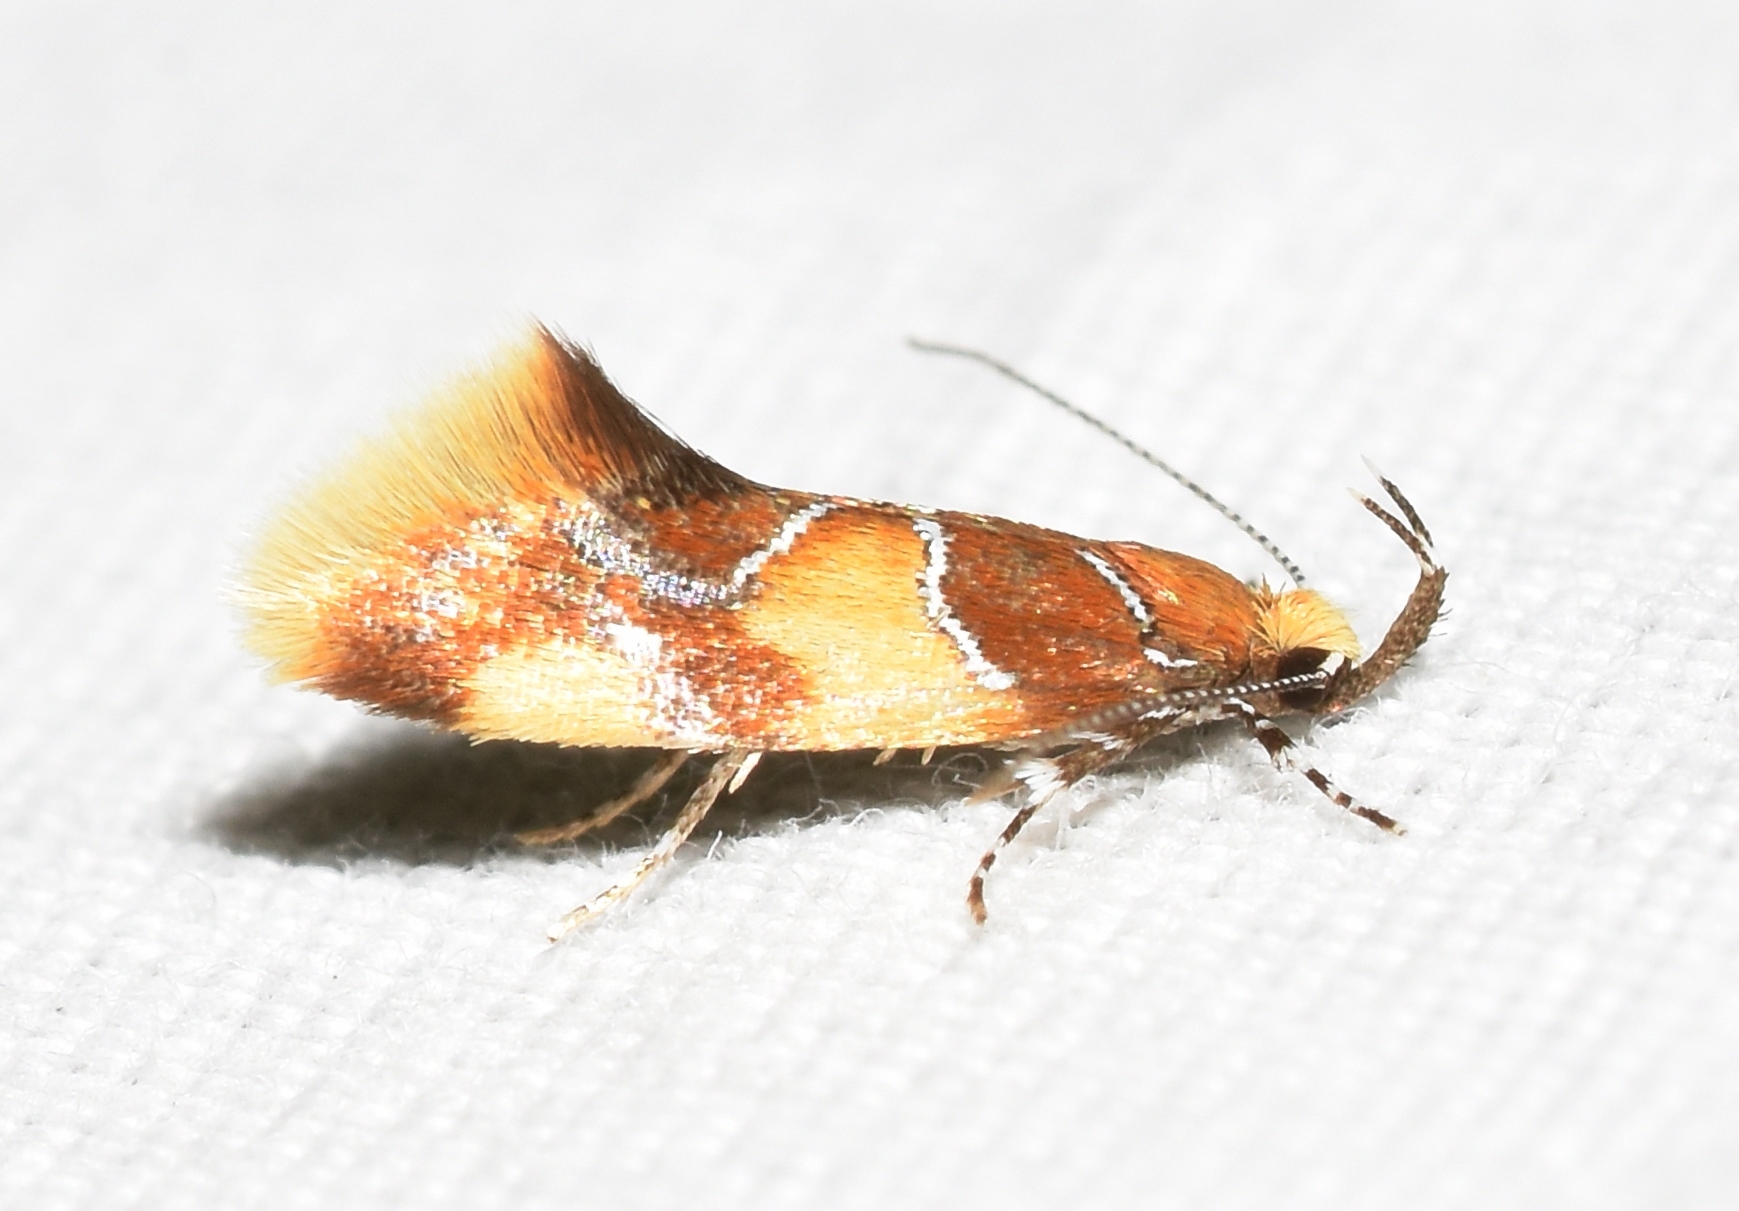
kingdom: Animalia
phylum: Arthropoda
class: Insecta
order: Lepidoptera
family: Oecophoridae
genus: Callima
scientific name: Callima argenticinctella
